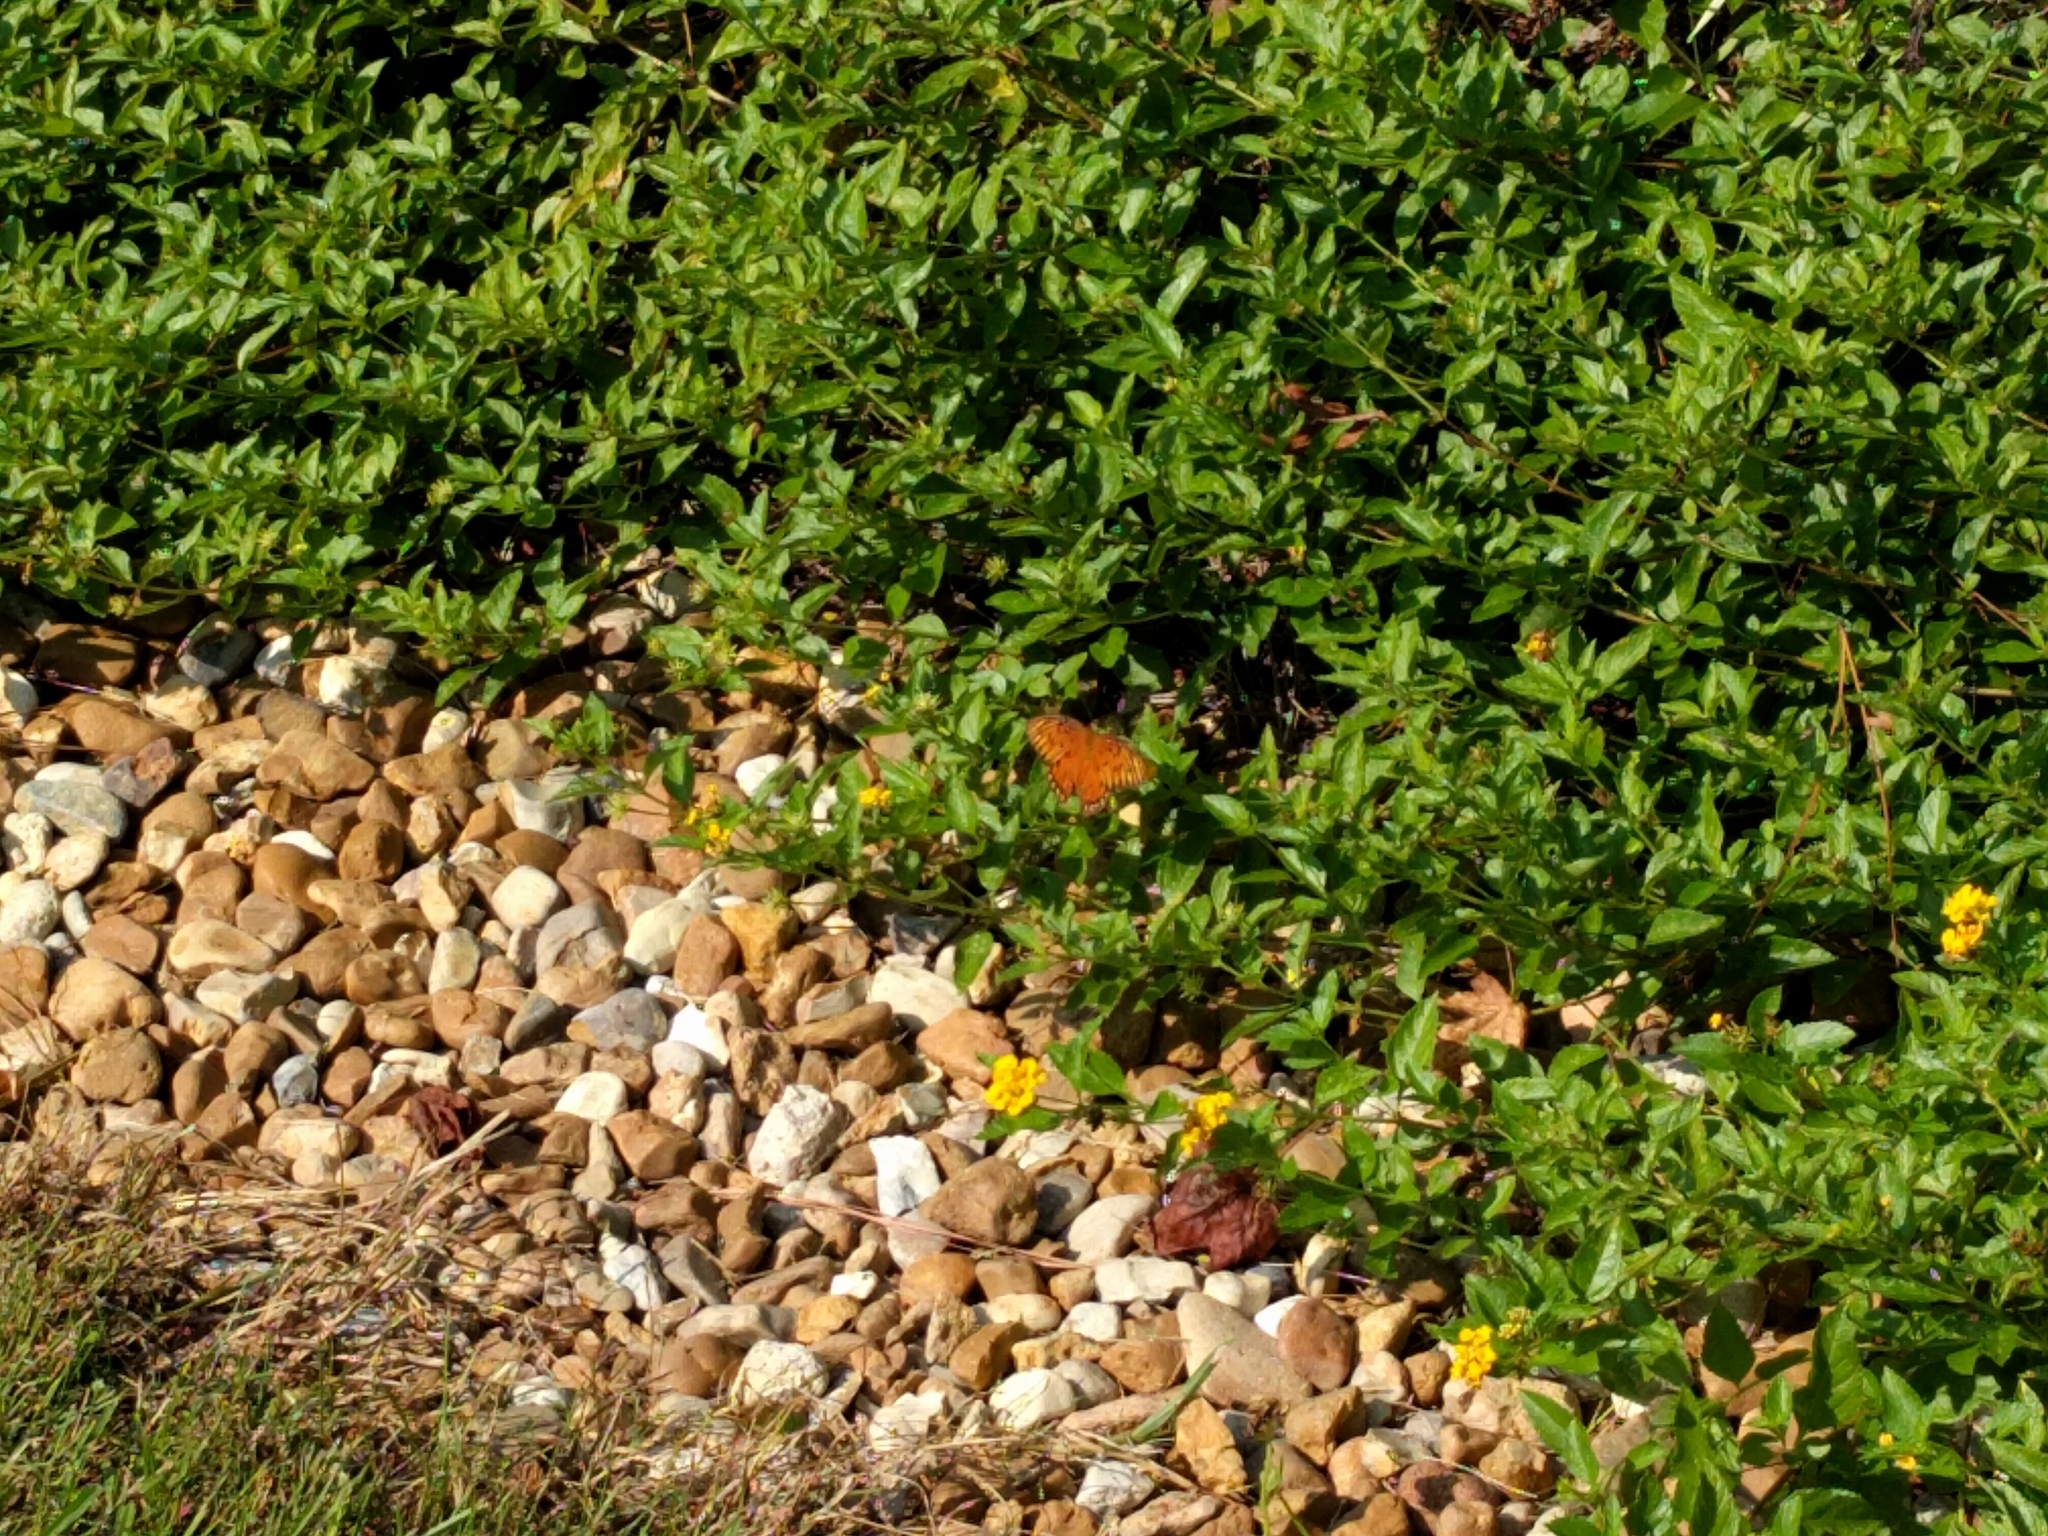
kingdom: Animalia
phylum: Arthropoda
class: Insecta
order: Lepidoptera
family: Nymphalidae
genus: Dione
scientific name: Dione vanillae
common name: Gulf fritillary
